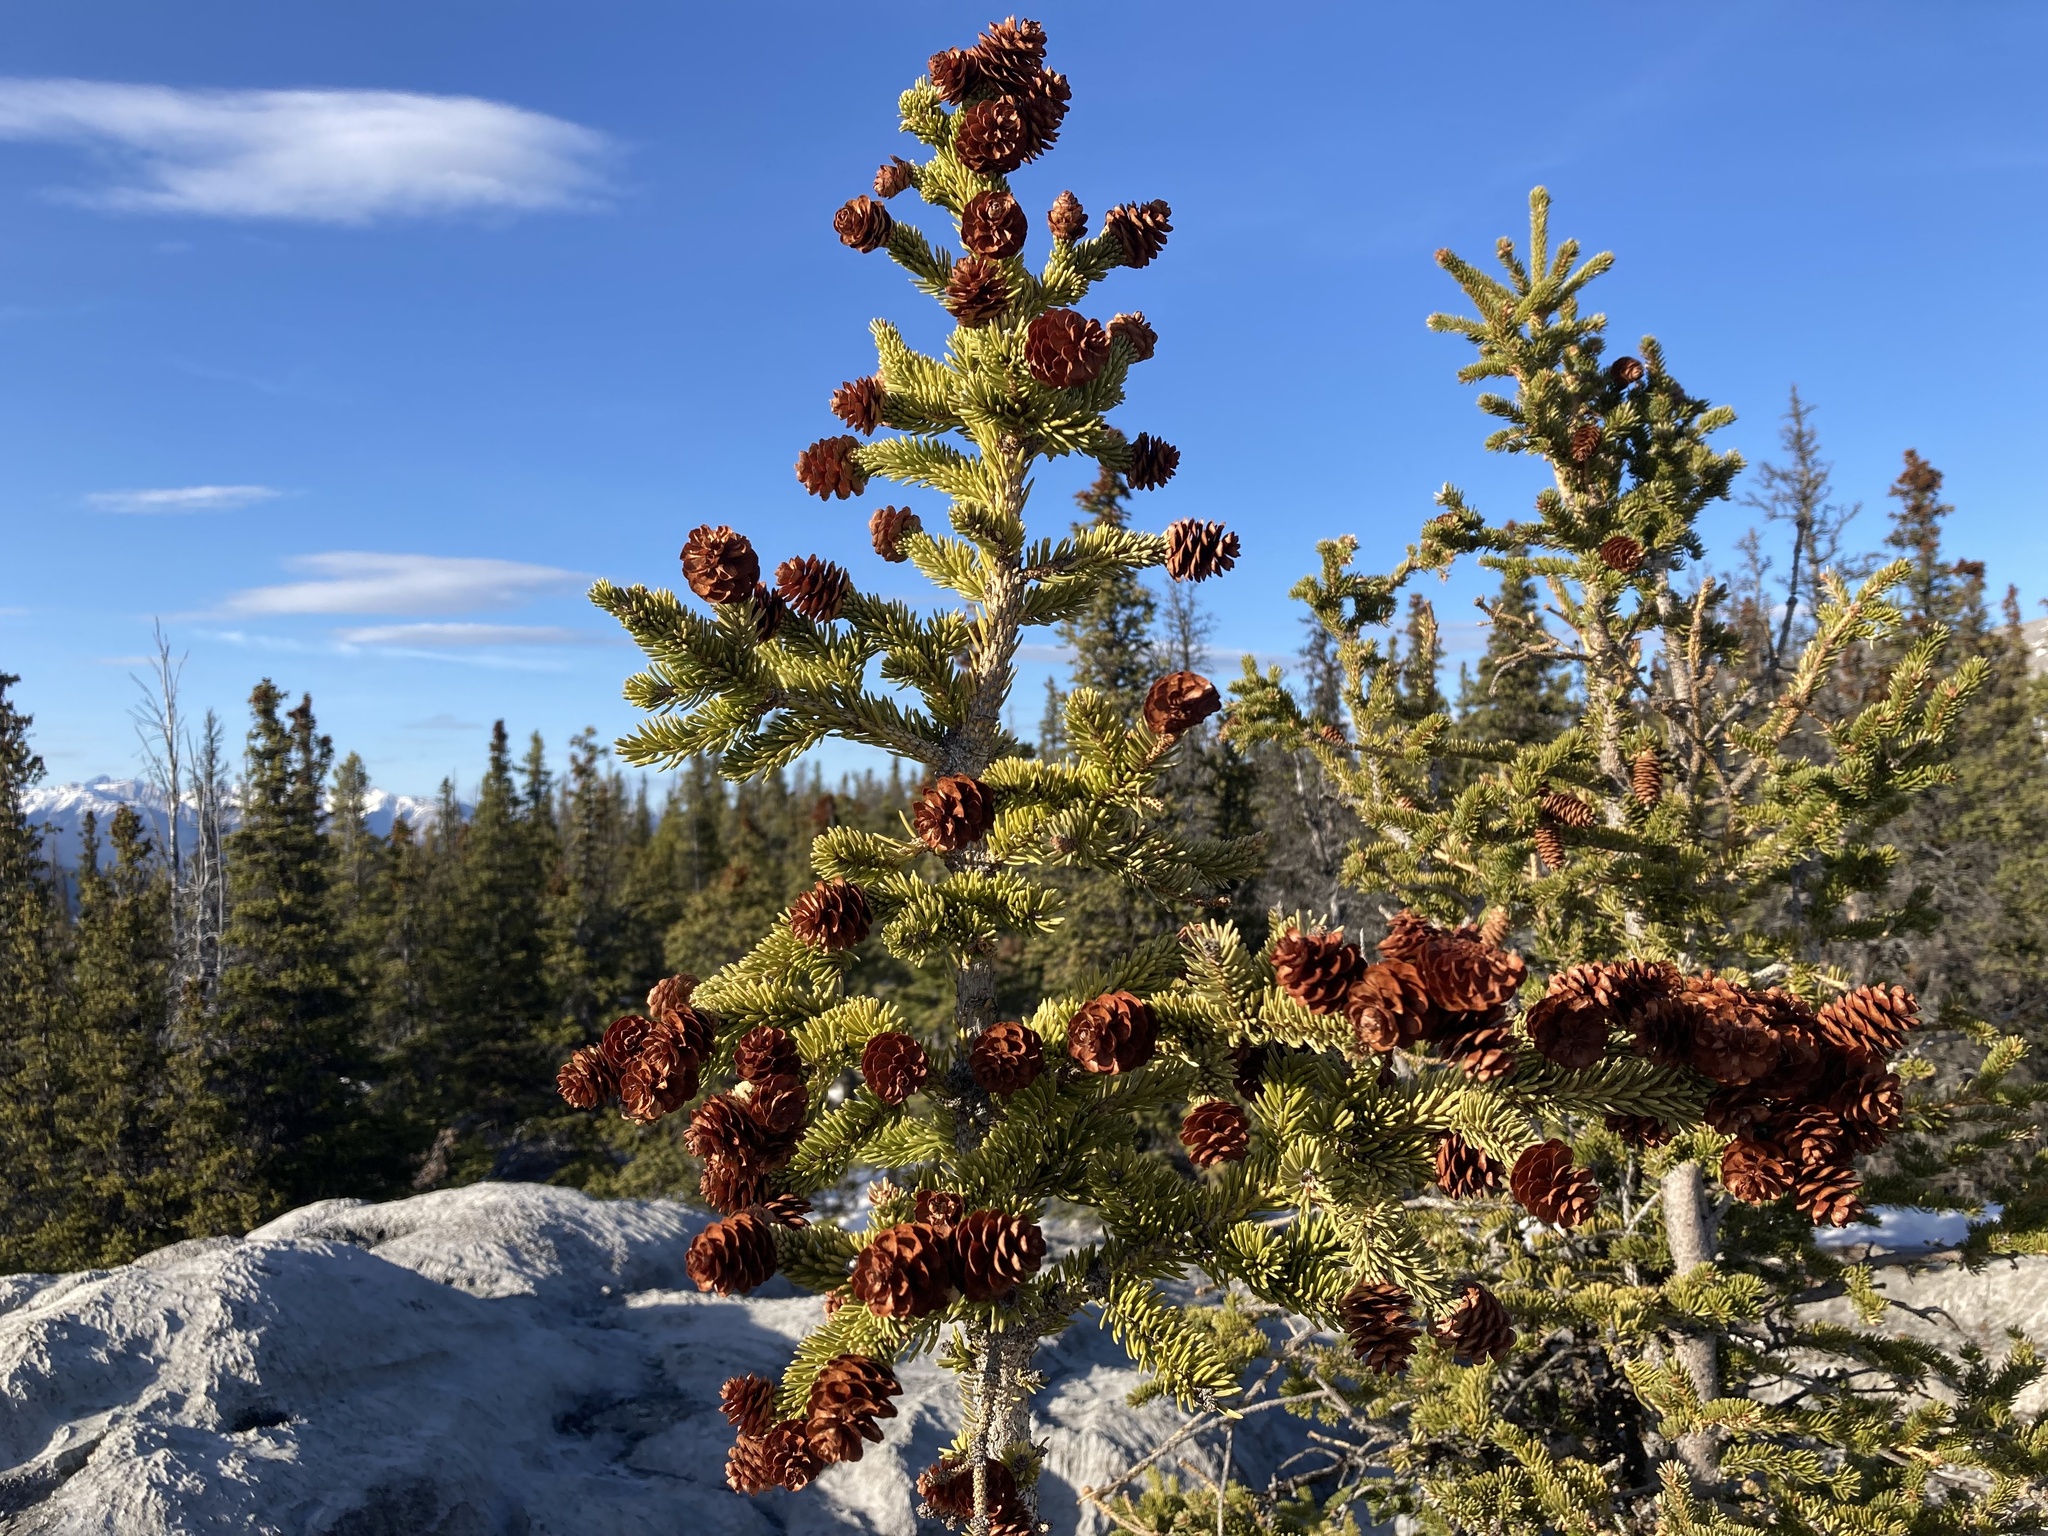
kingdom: Plantae
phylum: Tracheophyta
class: Pinopsida
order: Pinales
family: Pinaceae
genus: Picea
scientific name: Picea glauca
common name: White spruce
